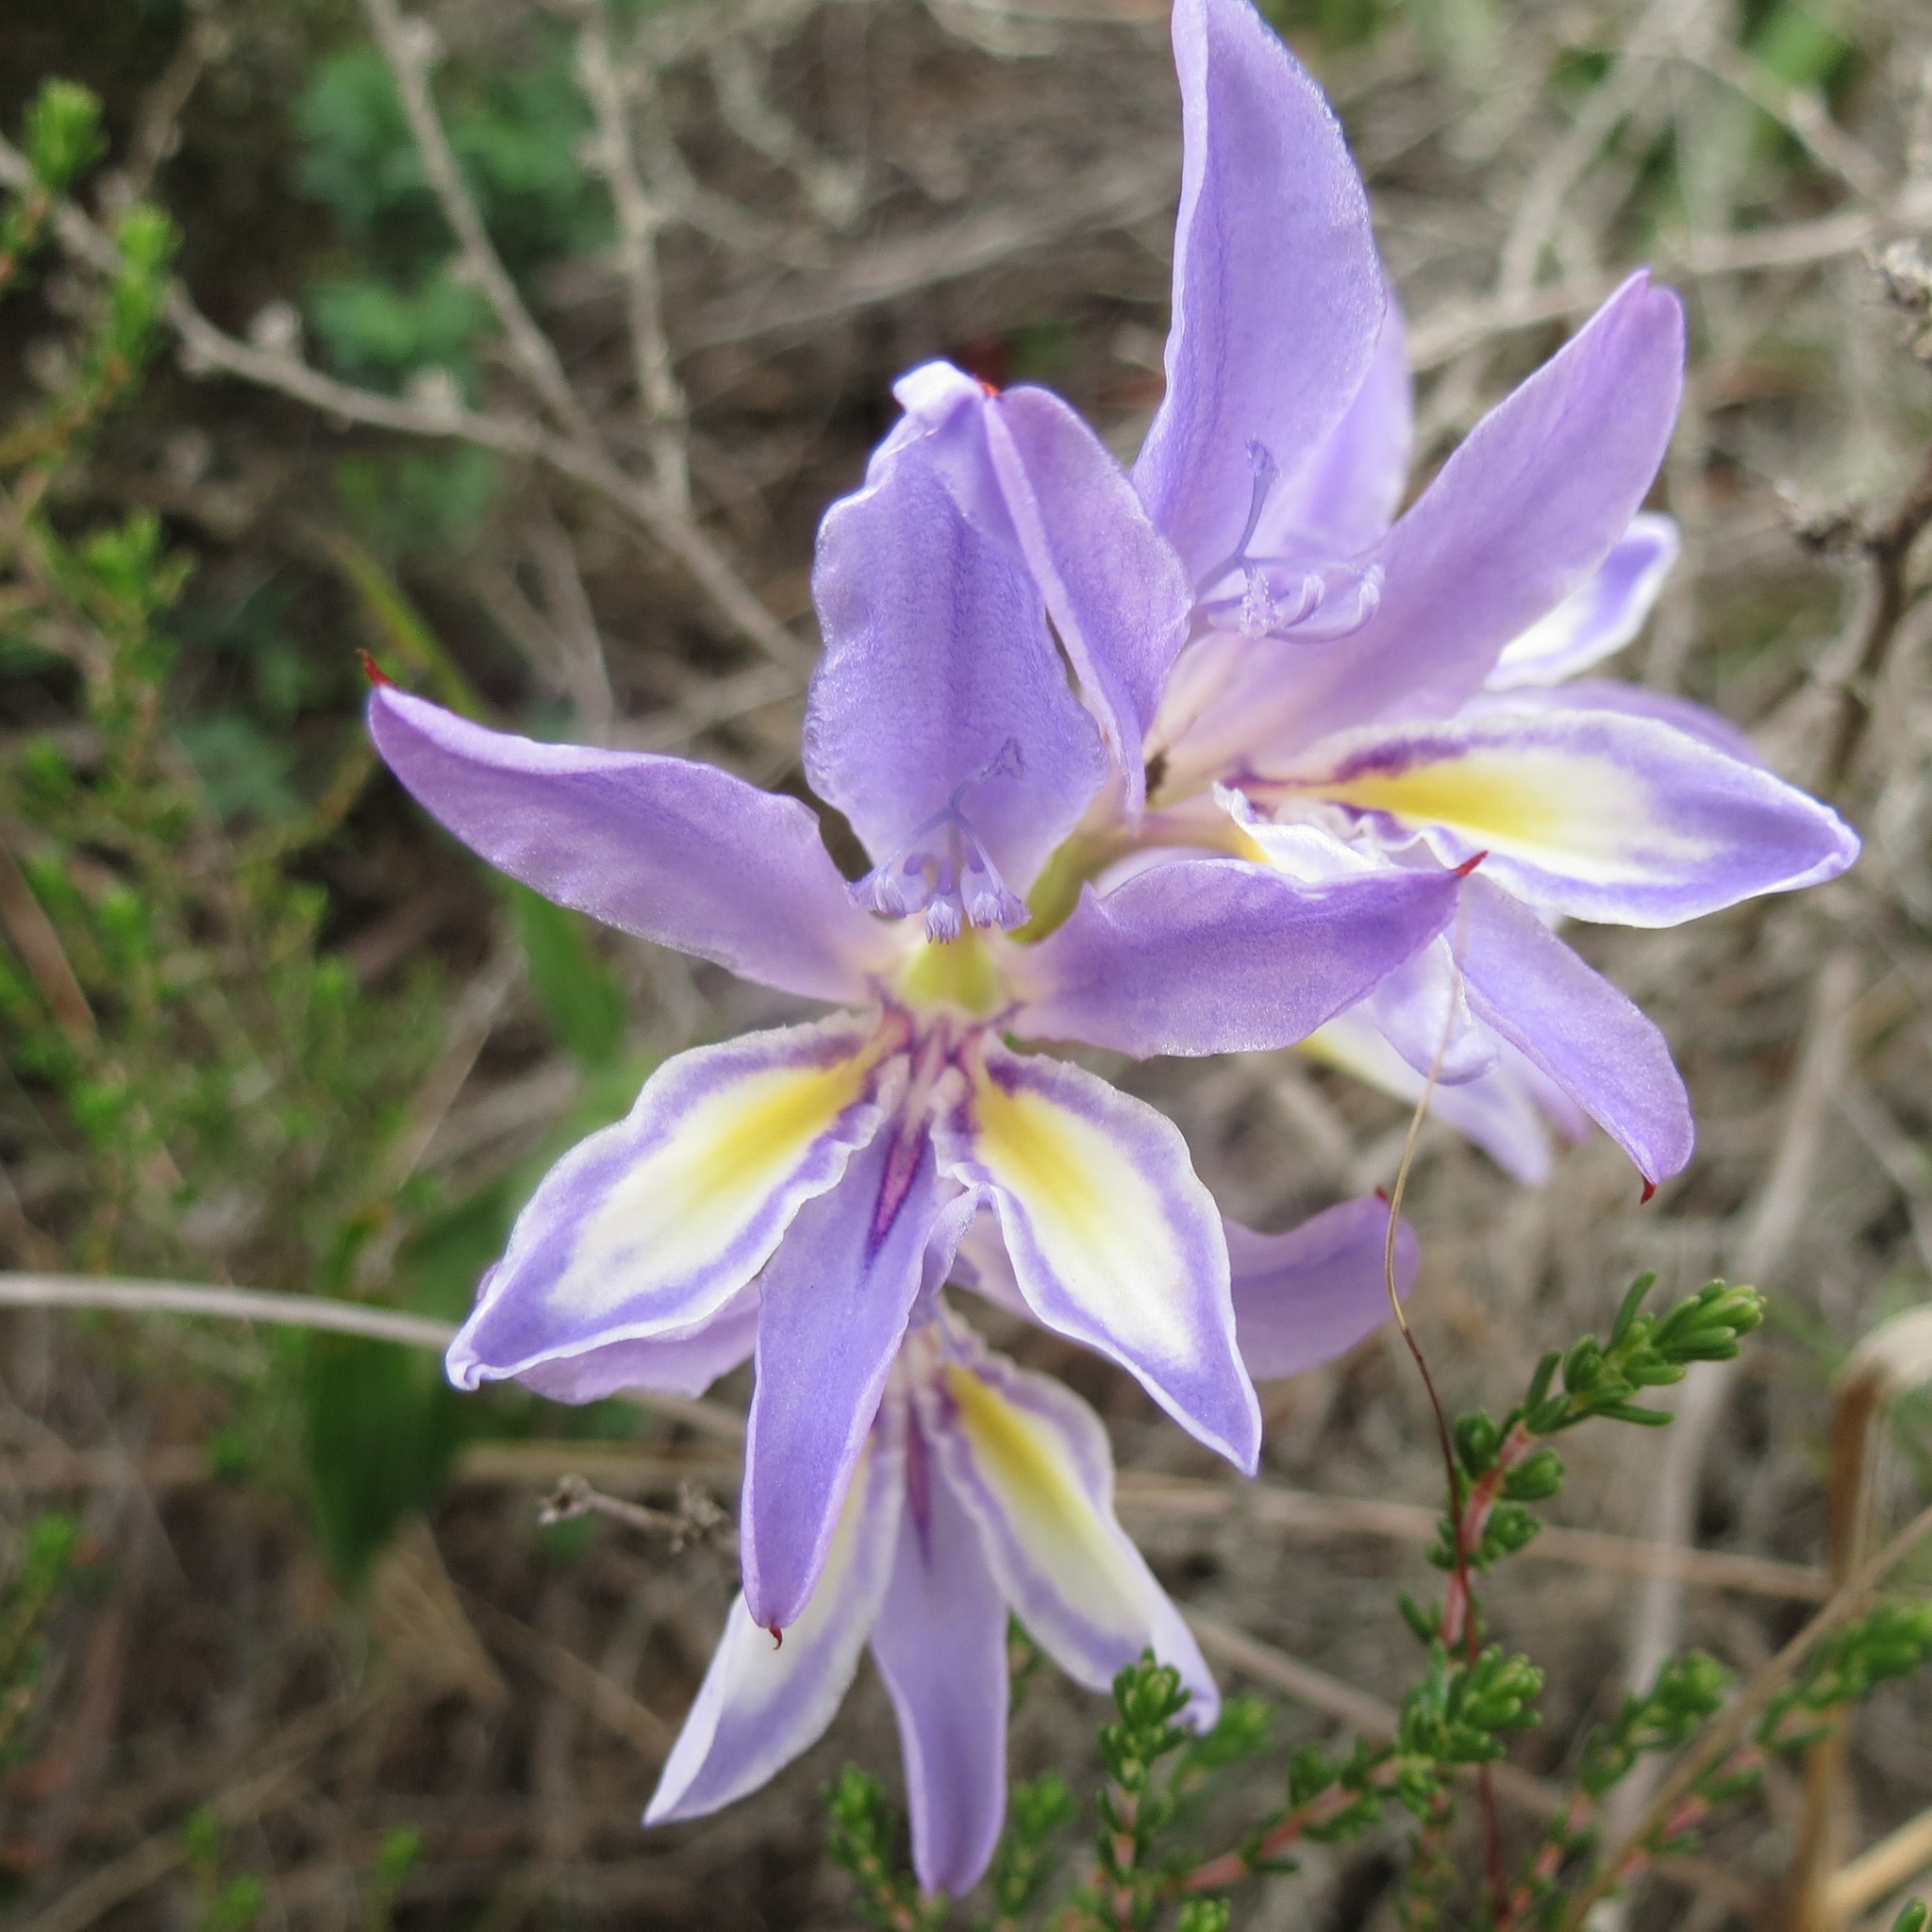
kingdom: Plantae
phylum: Tracheophyta
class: Liliopsida
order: Asparagales
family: Iridaceae
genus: Babiana
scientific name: Babiana fourcadei
